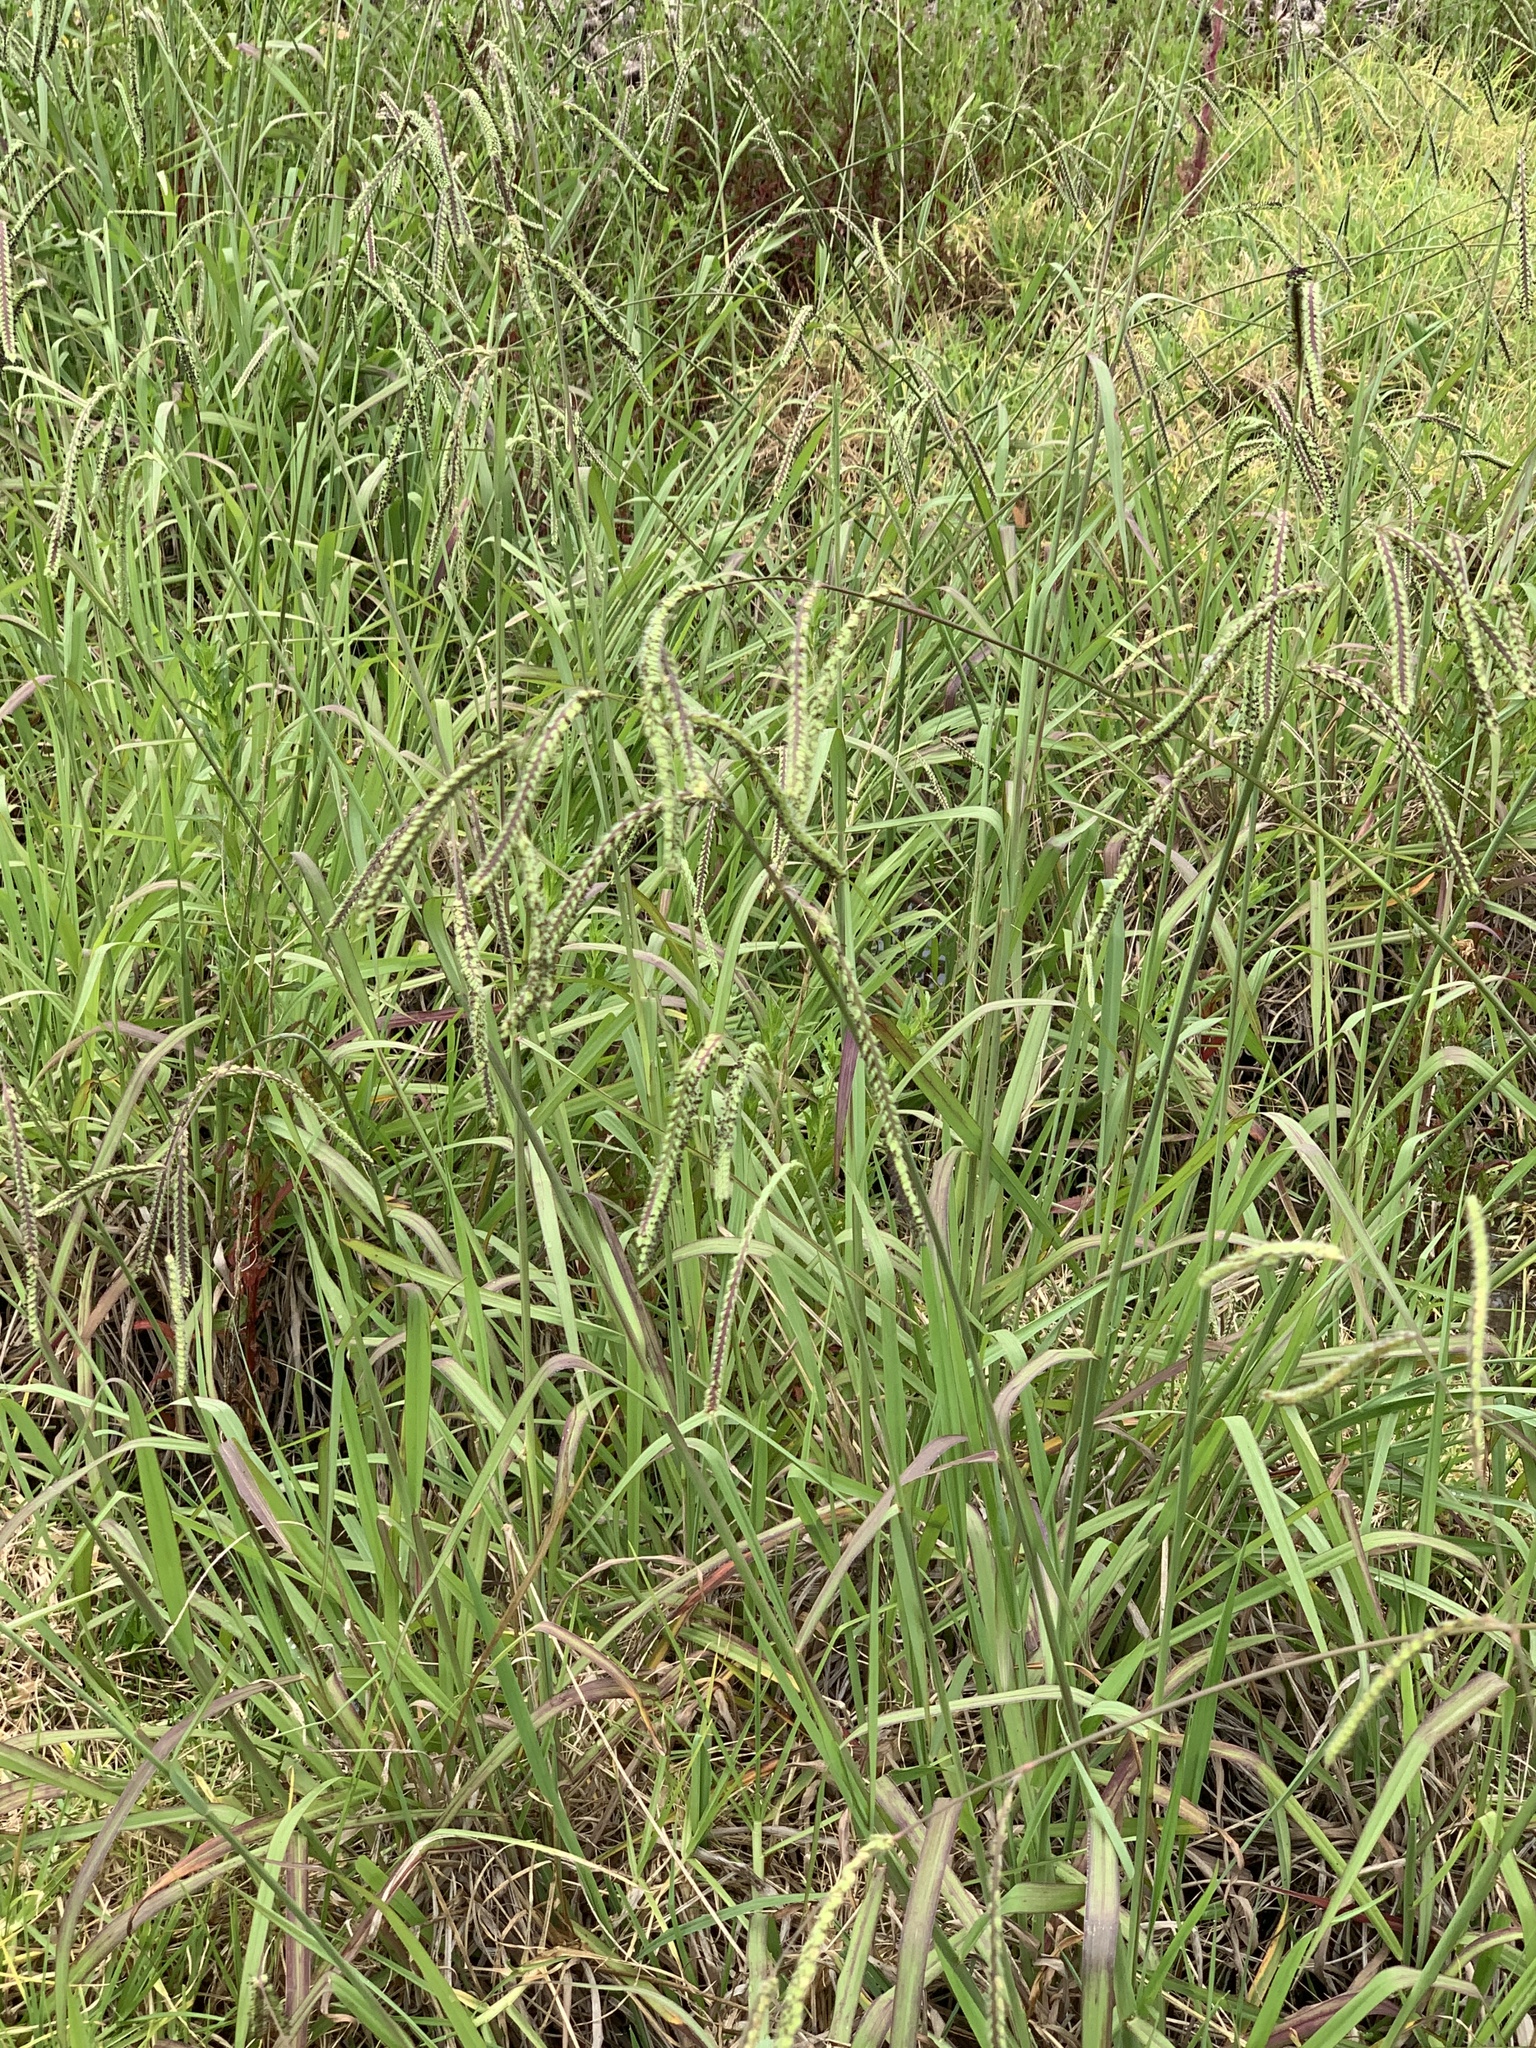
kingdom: Plantae
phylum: Tracheophyta
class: Liliopsida
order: Poales
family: Poaceae
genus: Paspalum
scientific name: Paspalum dilatatum
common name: Dallisgrass
